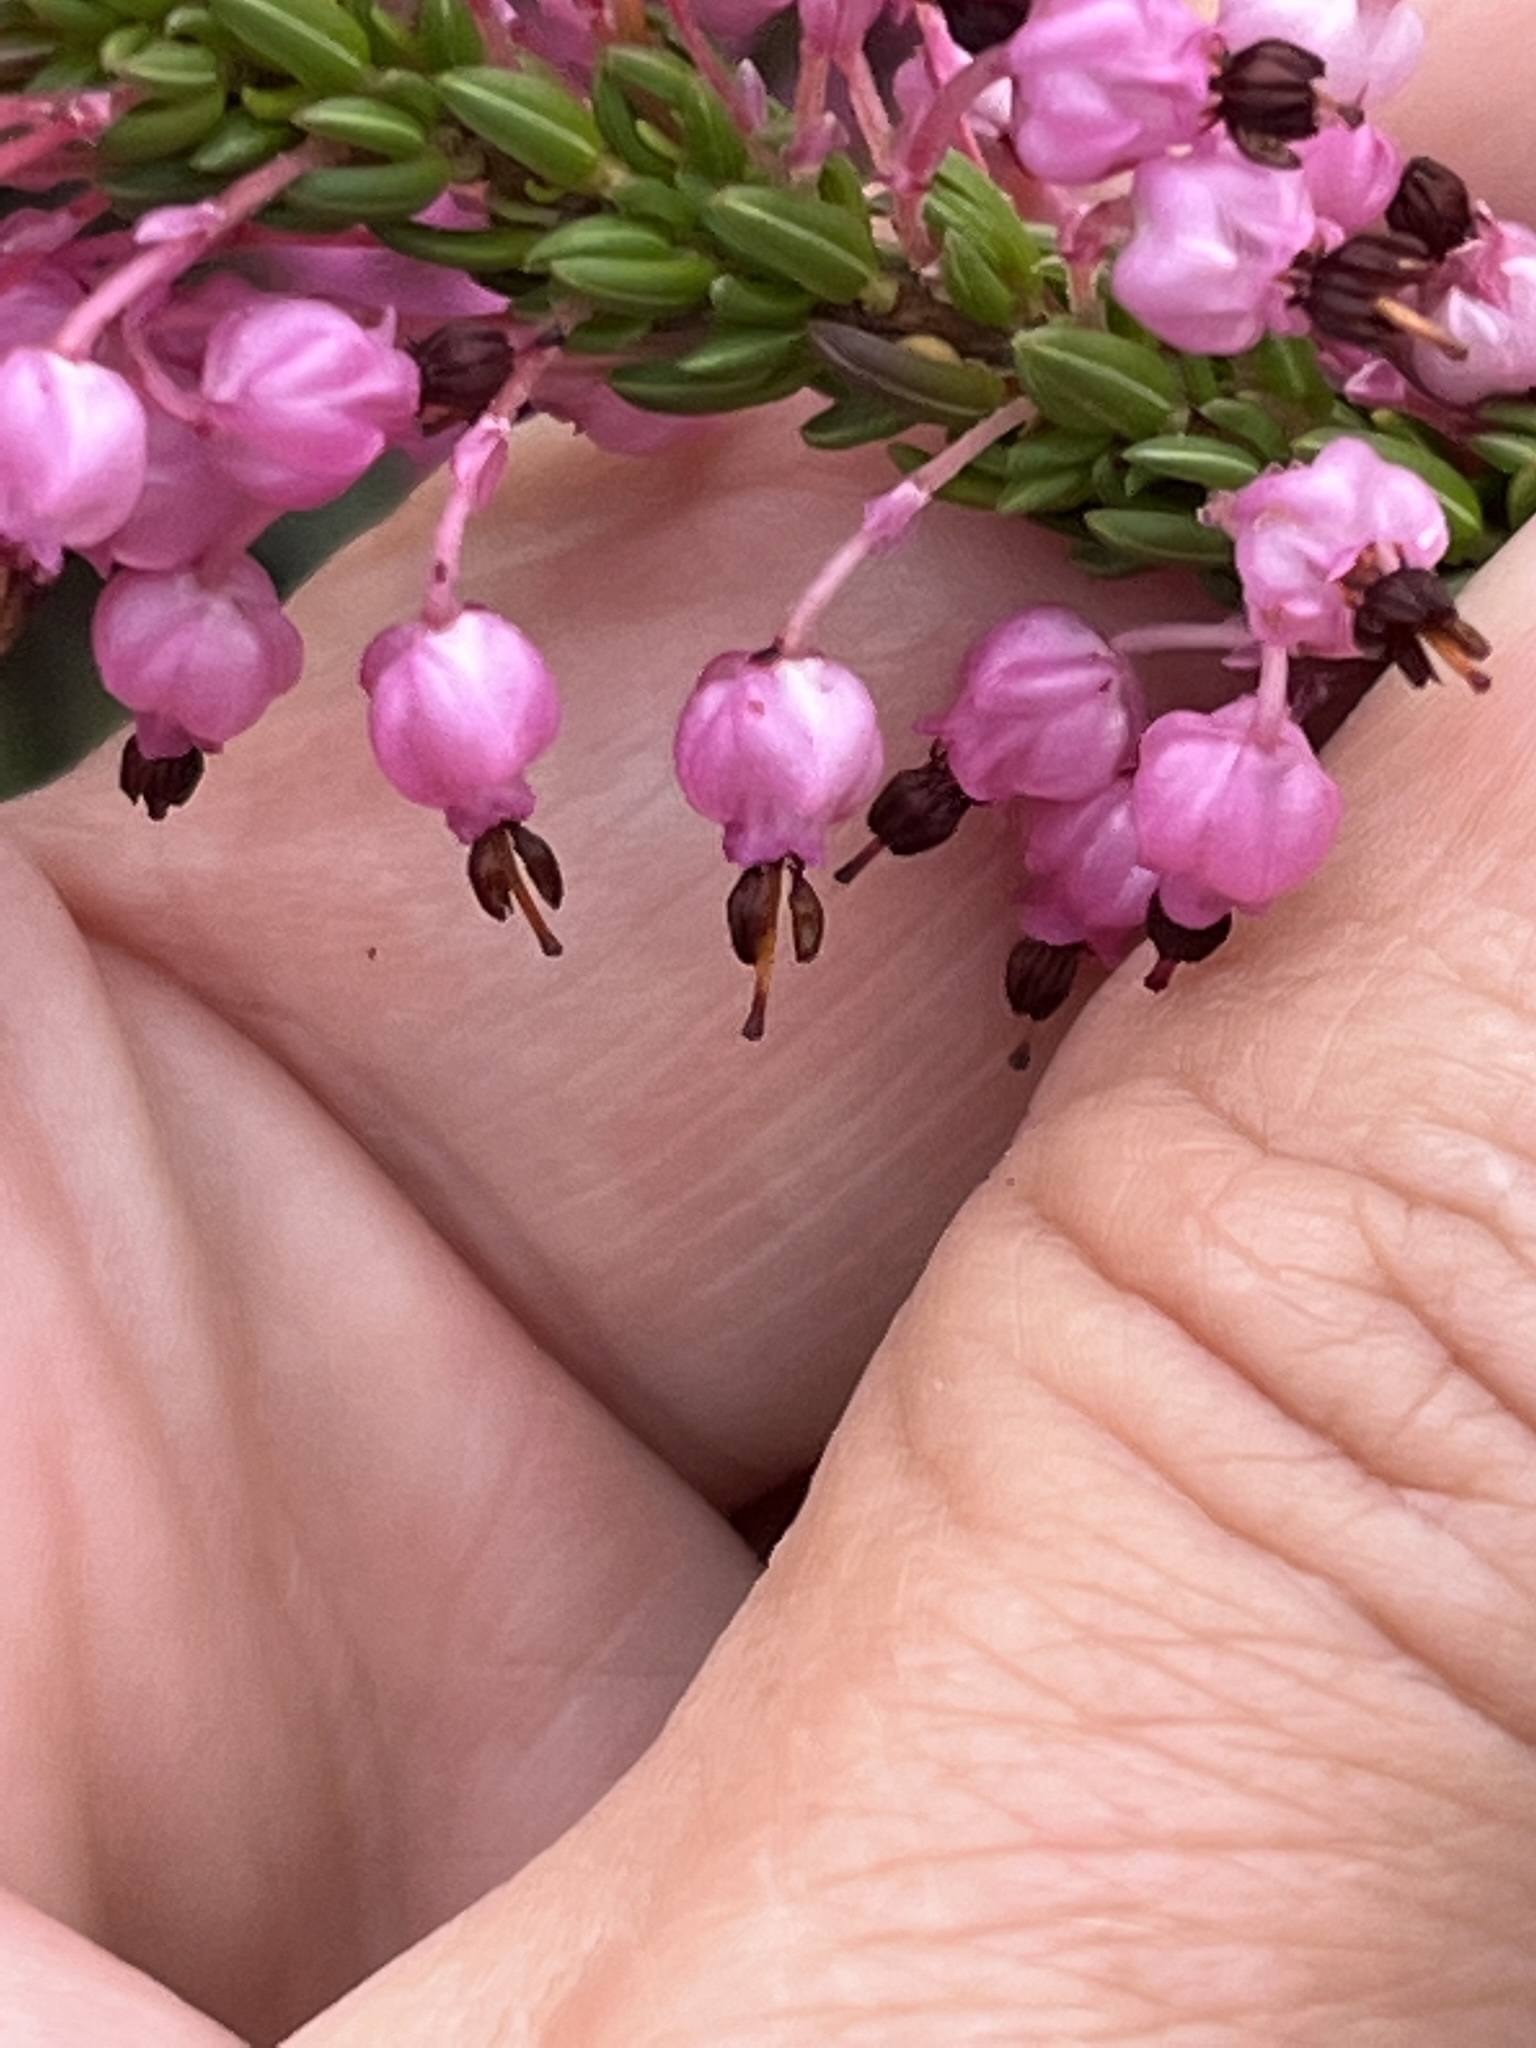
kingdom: Plantae
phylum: Tracheophyta
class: Magnoliopsida
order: Ericales
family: Ericaceae
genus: Erica
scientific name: Erica gracilipes
